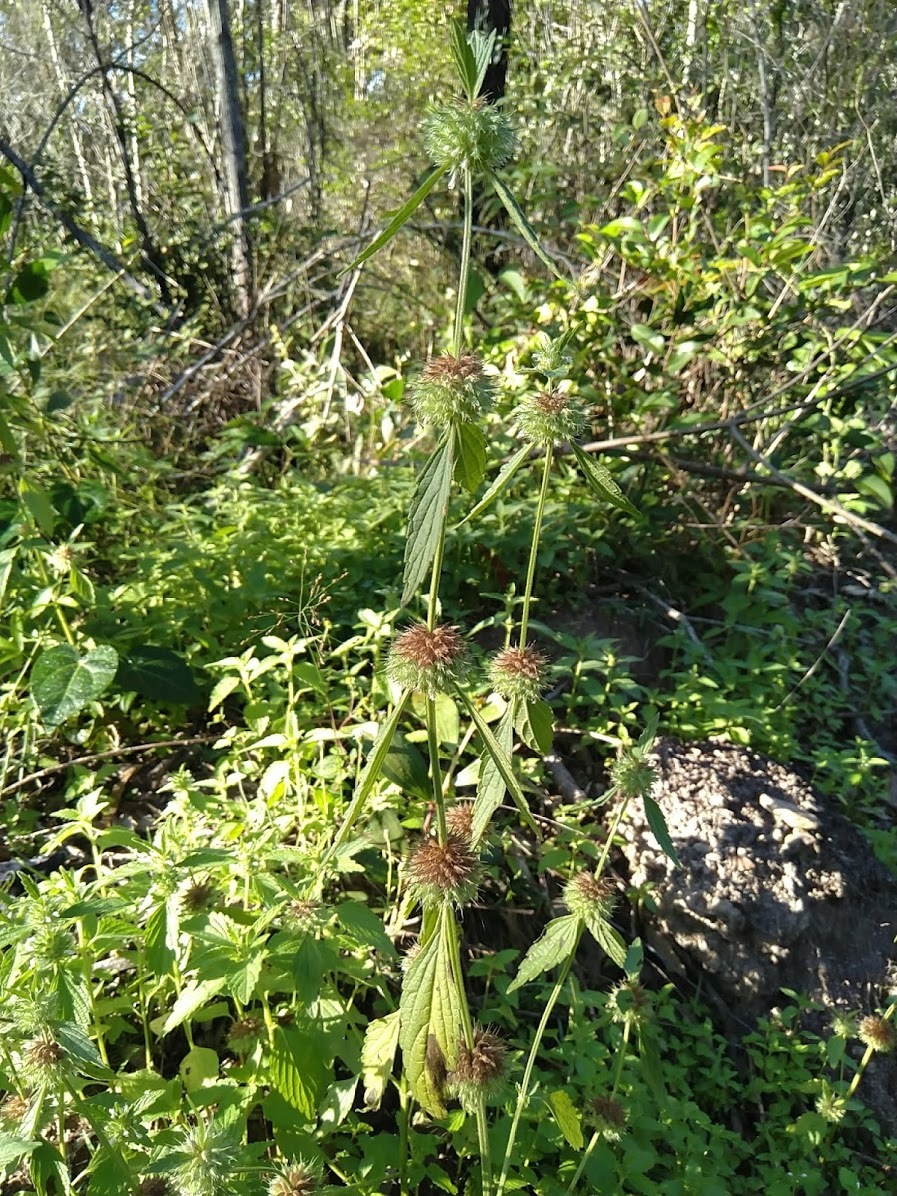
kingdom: Plantae
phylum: Tracheophyta
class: Magnoliopsida
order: Lamiales
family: Lamiaceae
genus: Leucas
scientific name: Leucas martinicensis
